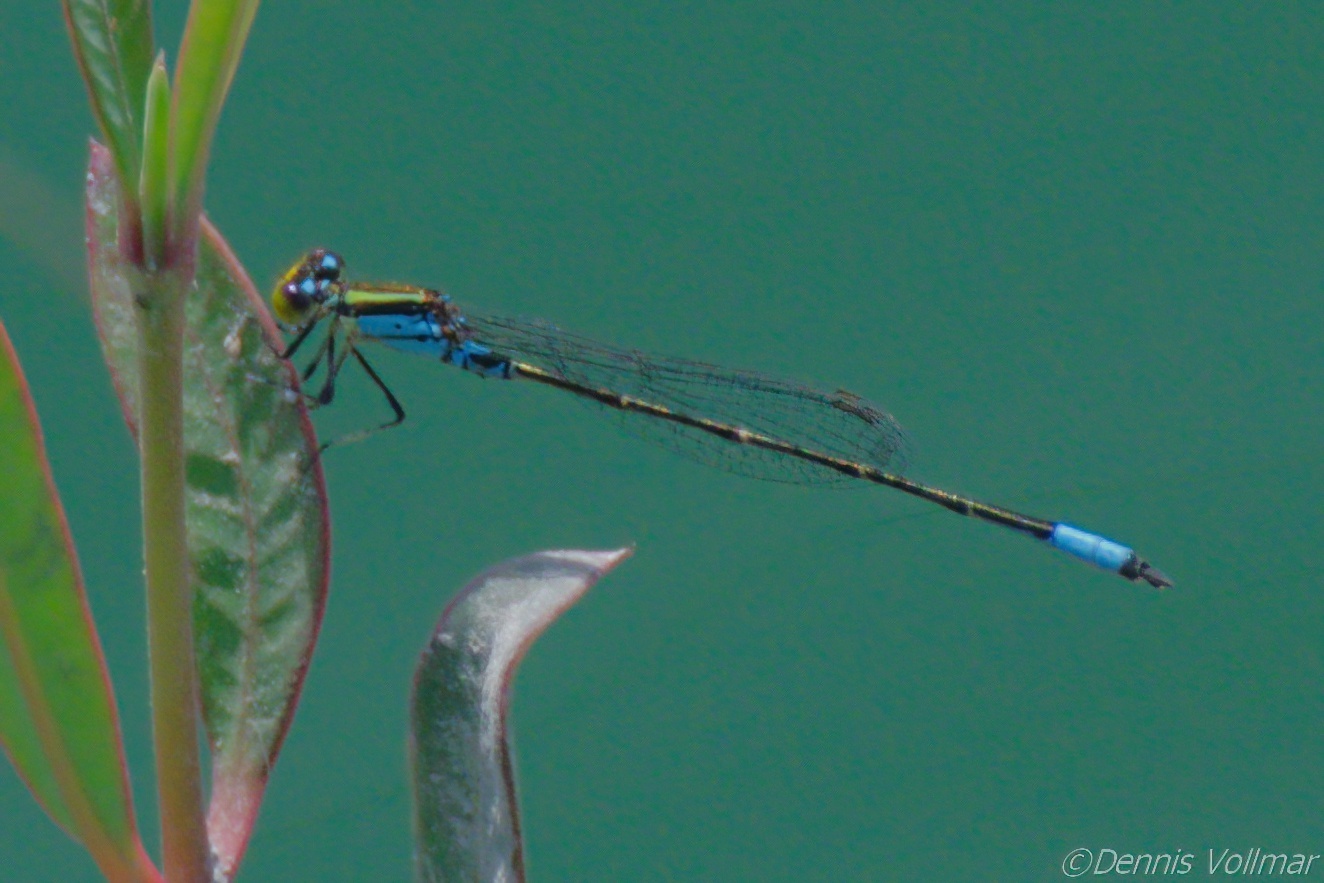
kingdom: Animalia
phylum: Arthropoda
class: Insecta
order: Odonata
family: Coenagrionidae
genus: Neoerythromma
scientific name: Neoerythromma cultellatum
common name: Caribbean yellowface
